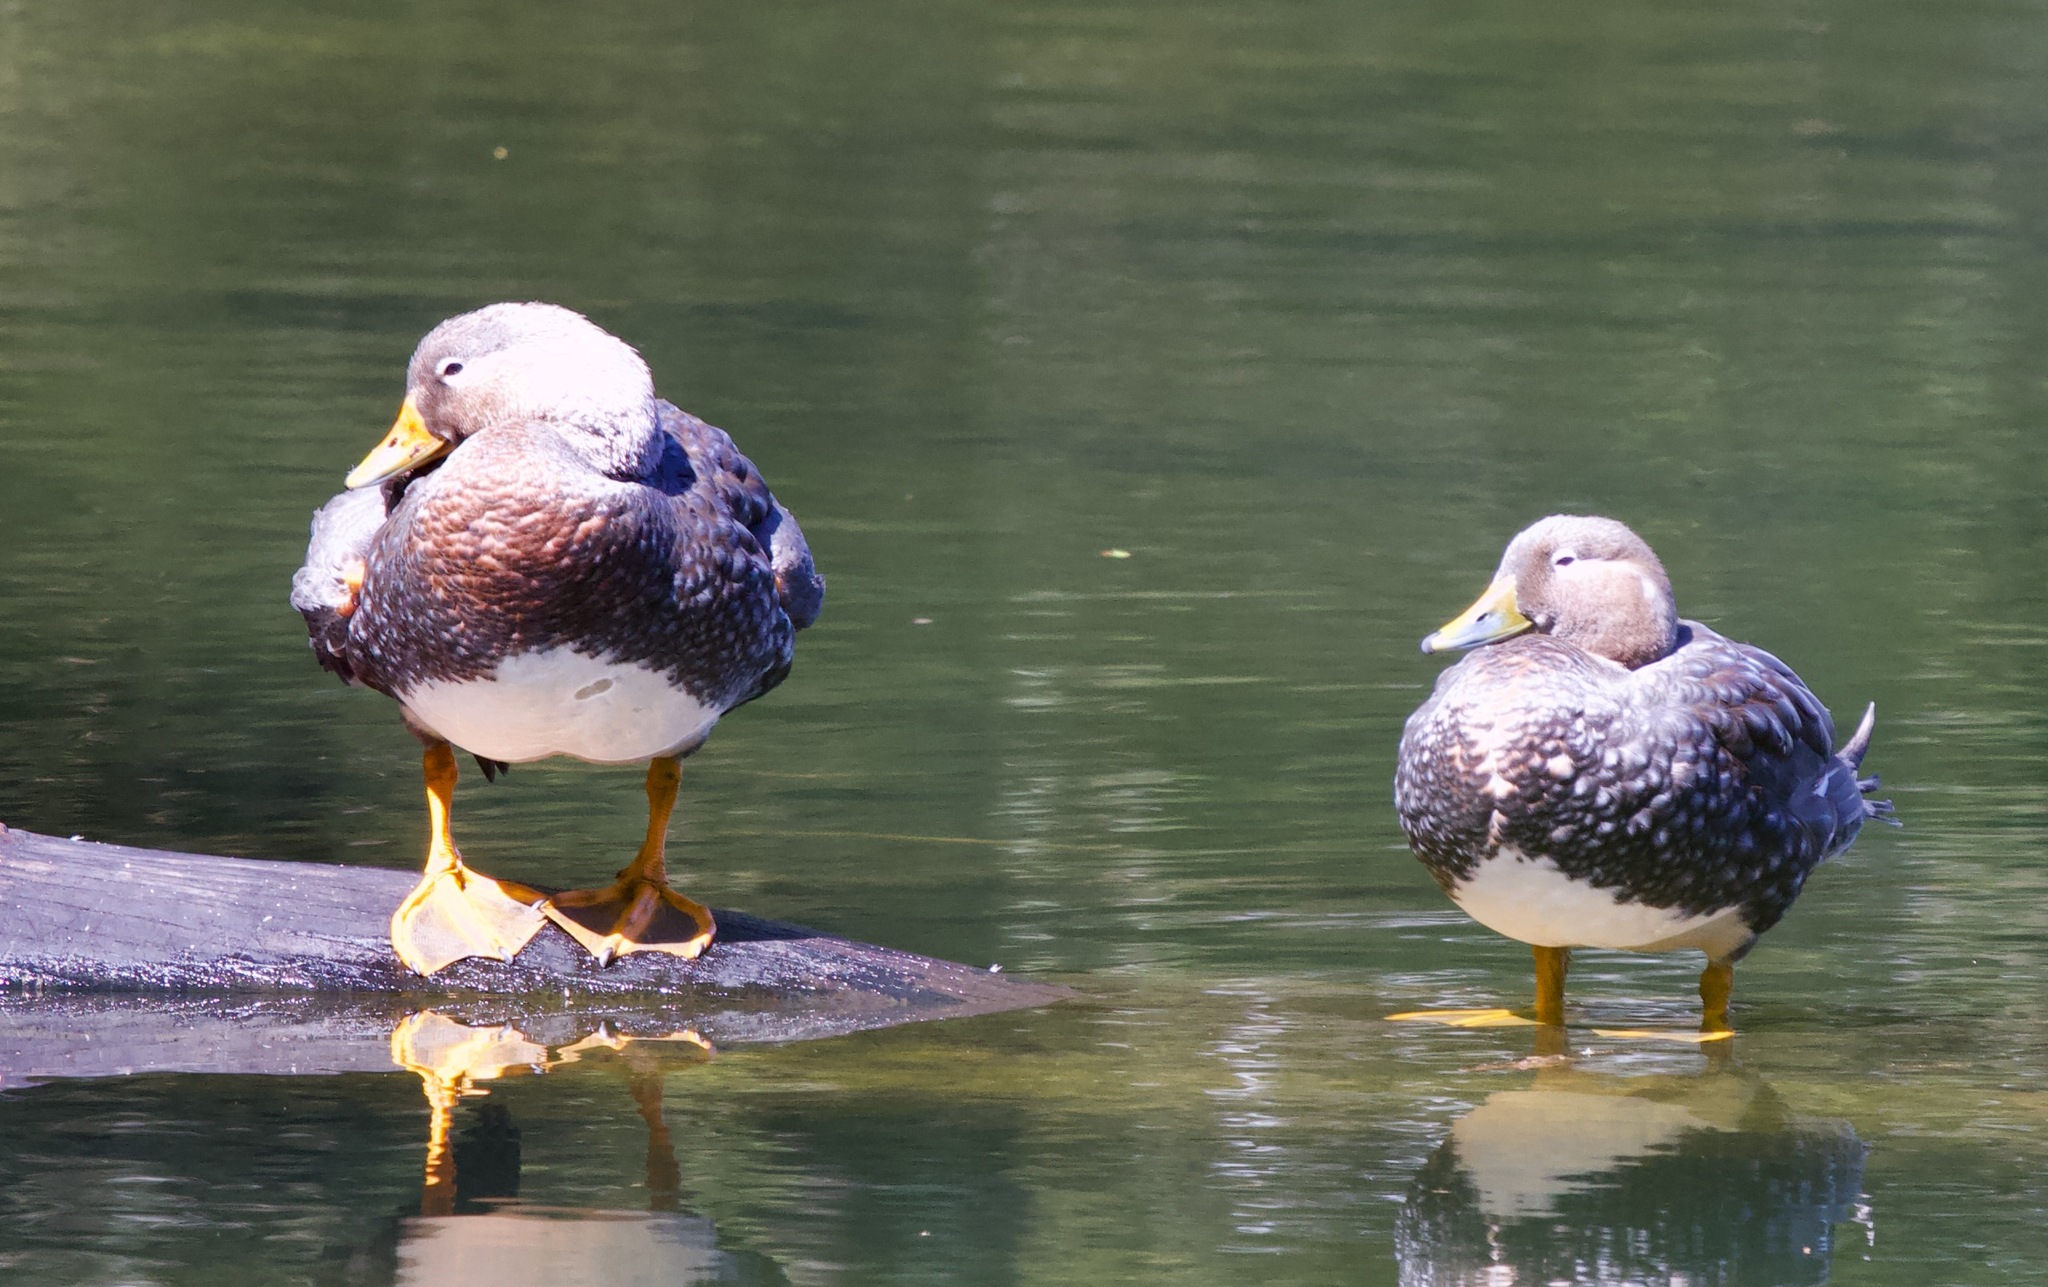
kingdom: Animalia
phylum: Chordata
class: Aves
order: Anseriformes
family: Anatidae
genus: Tachyeres
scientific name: Tachyeres patachonicus
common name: Flying steamer duck
